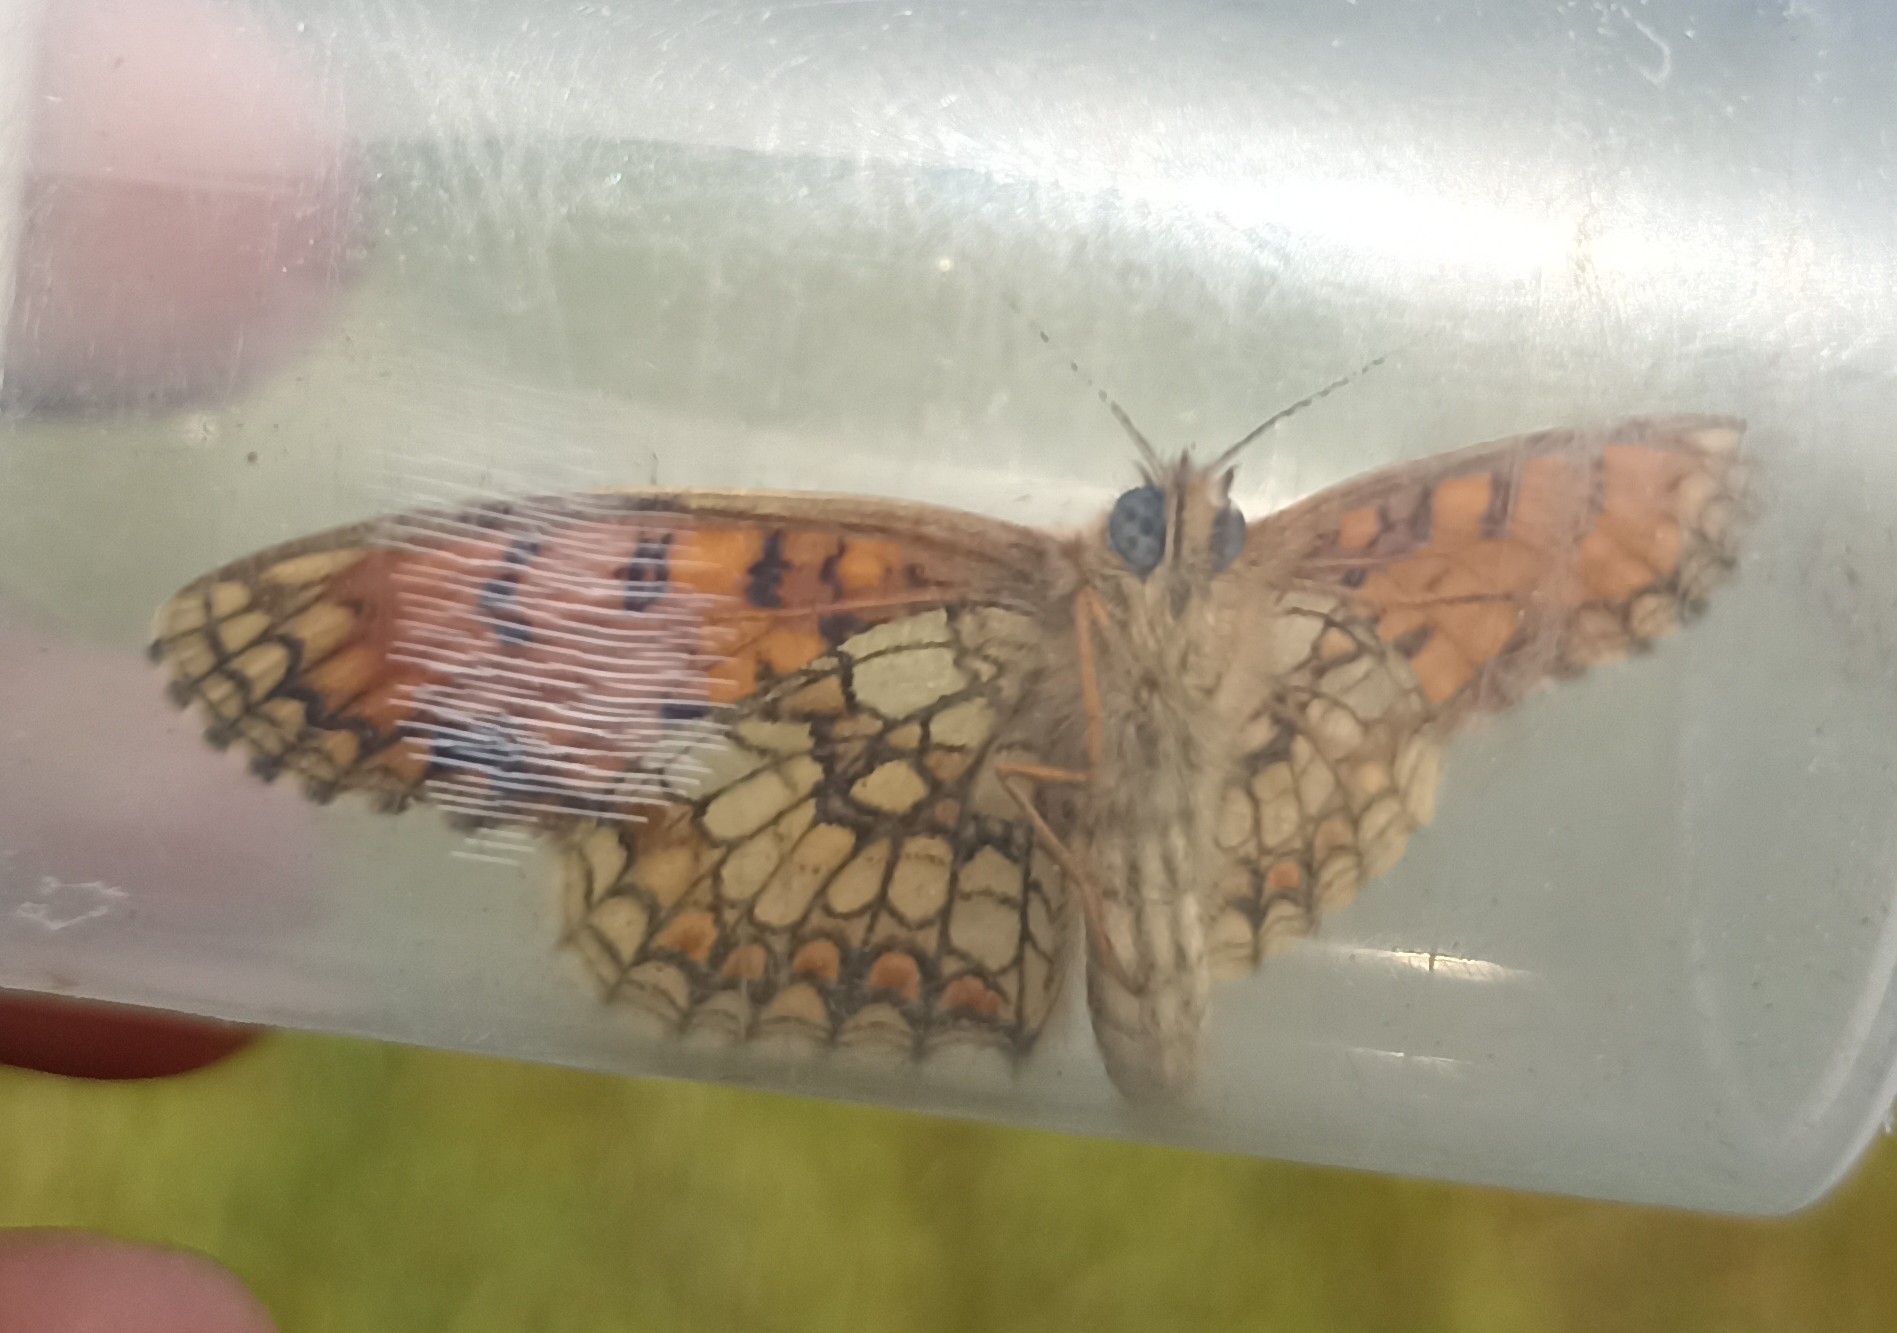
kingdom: Animalia
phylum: Arthropoda
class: Insecta
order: Lepidoptera
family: Nymphalidae
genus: Mellicta
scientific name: Mellicta athalia
